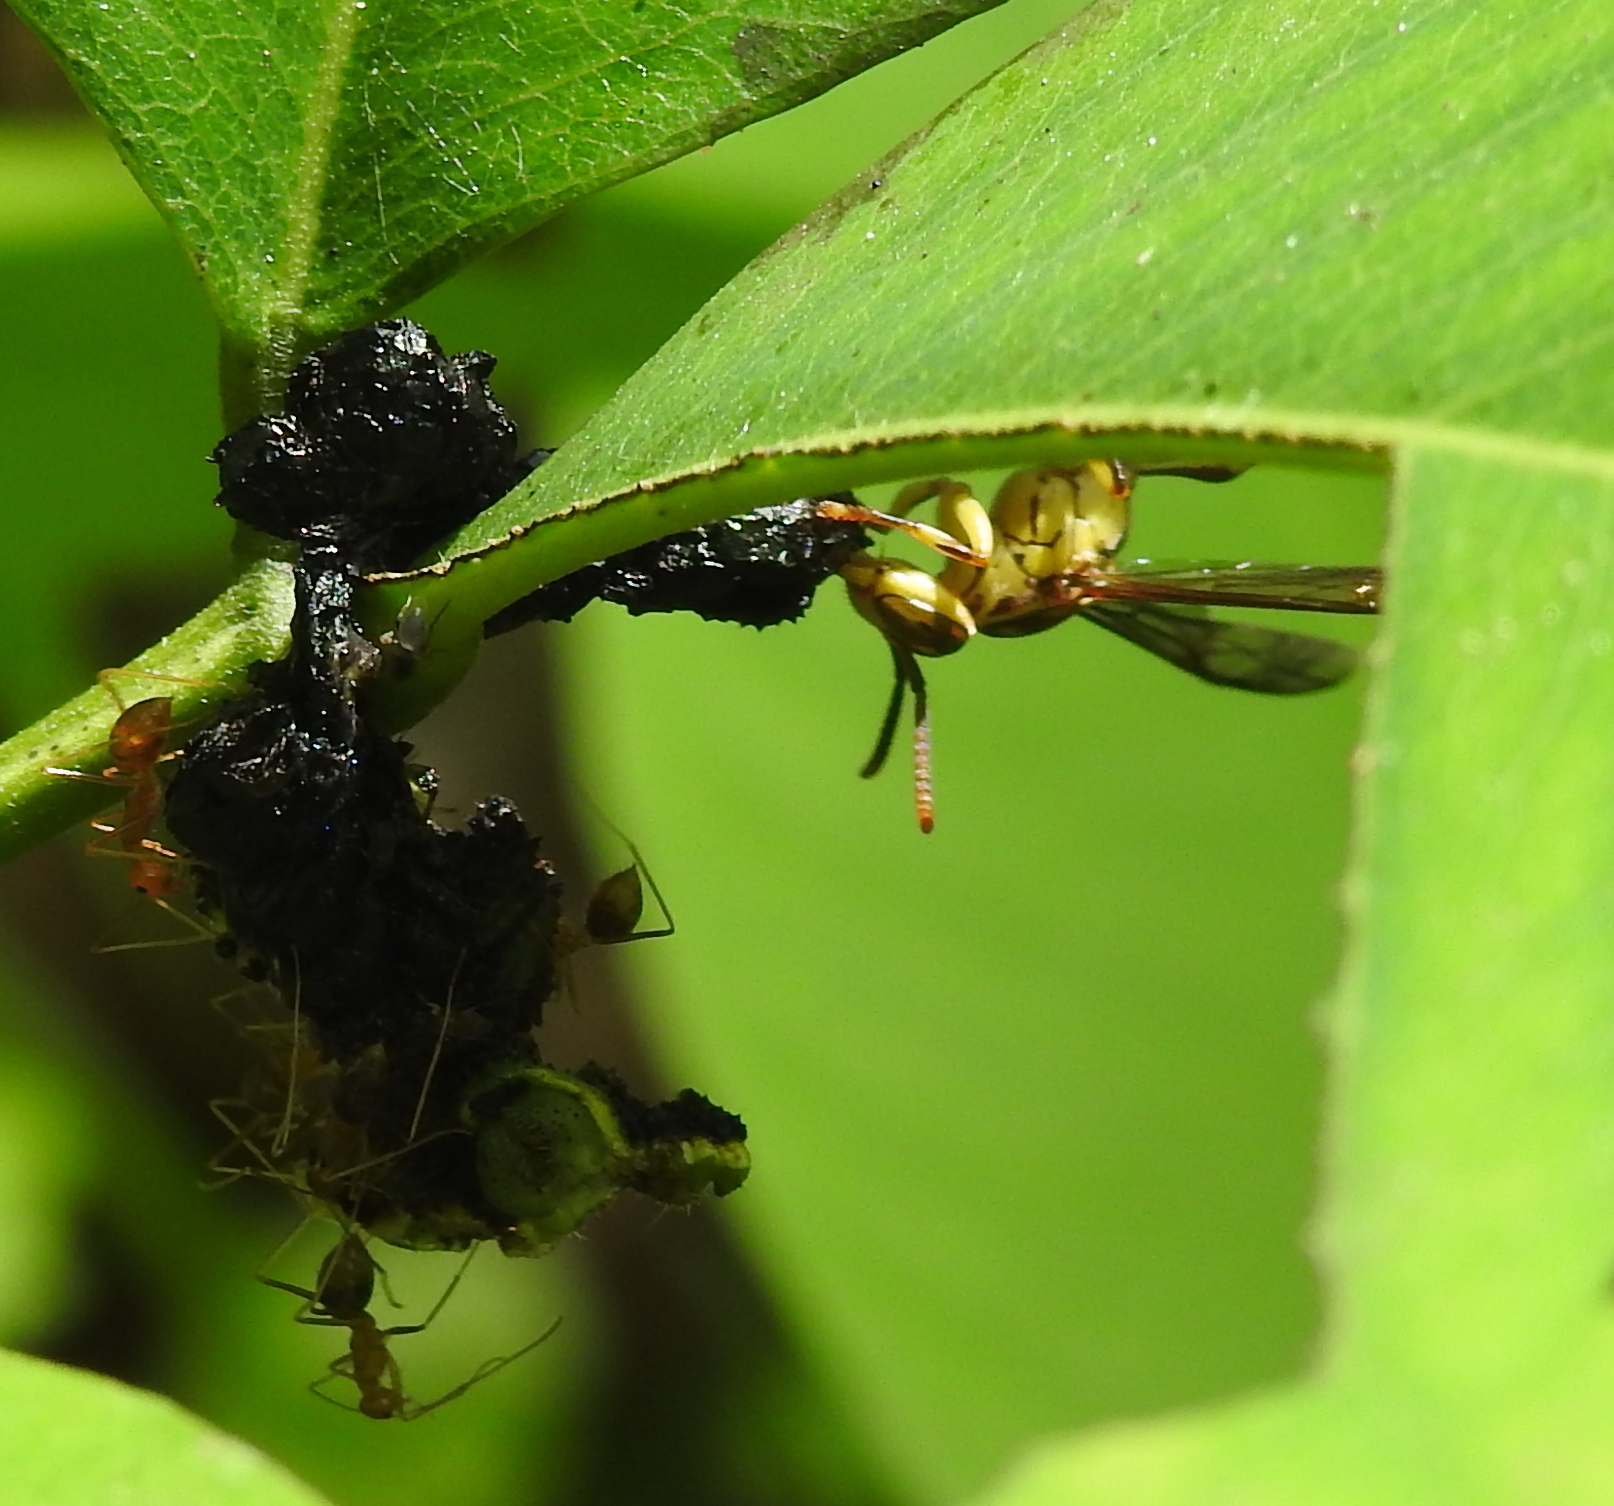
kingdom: Animalia
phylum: Arthropoda
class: Insecta
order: Hymenoptera
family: Vespidae
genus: Parapolybia
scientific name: Parapolybia varia
